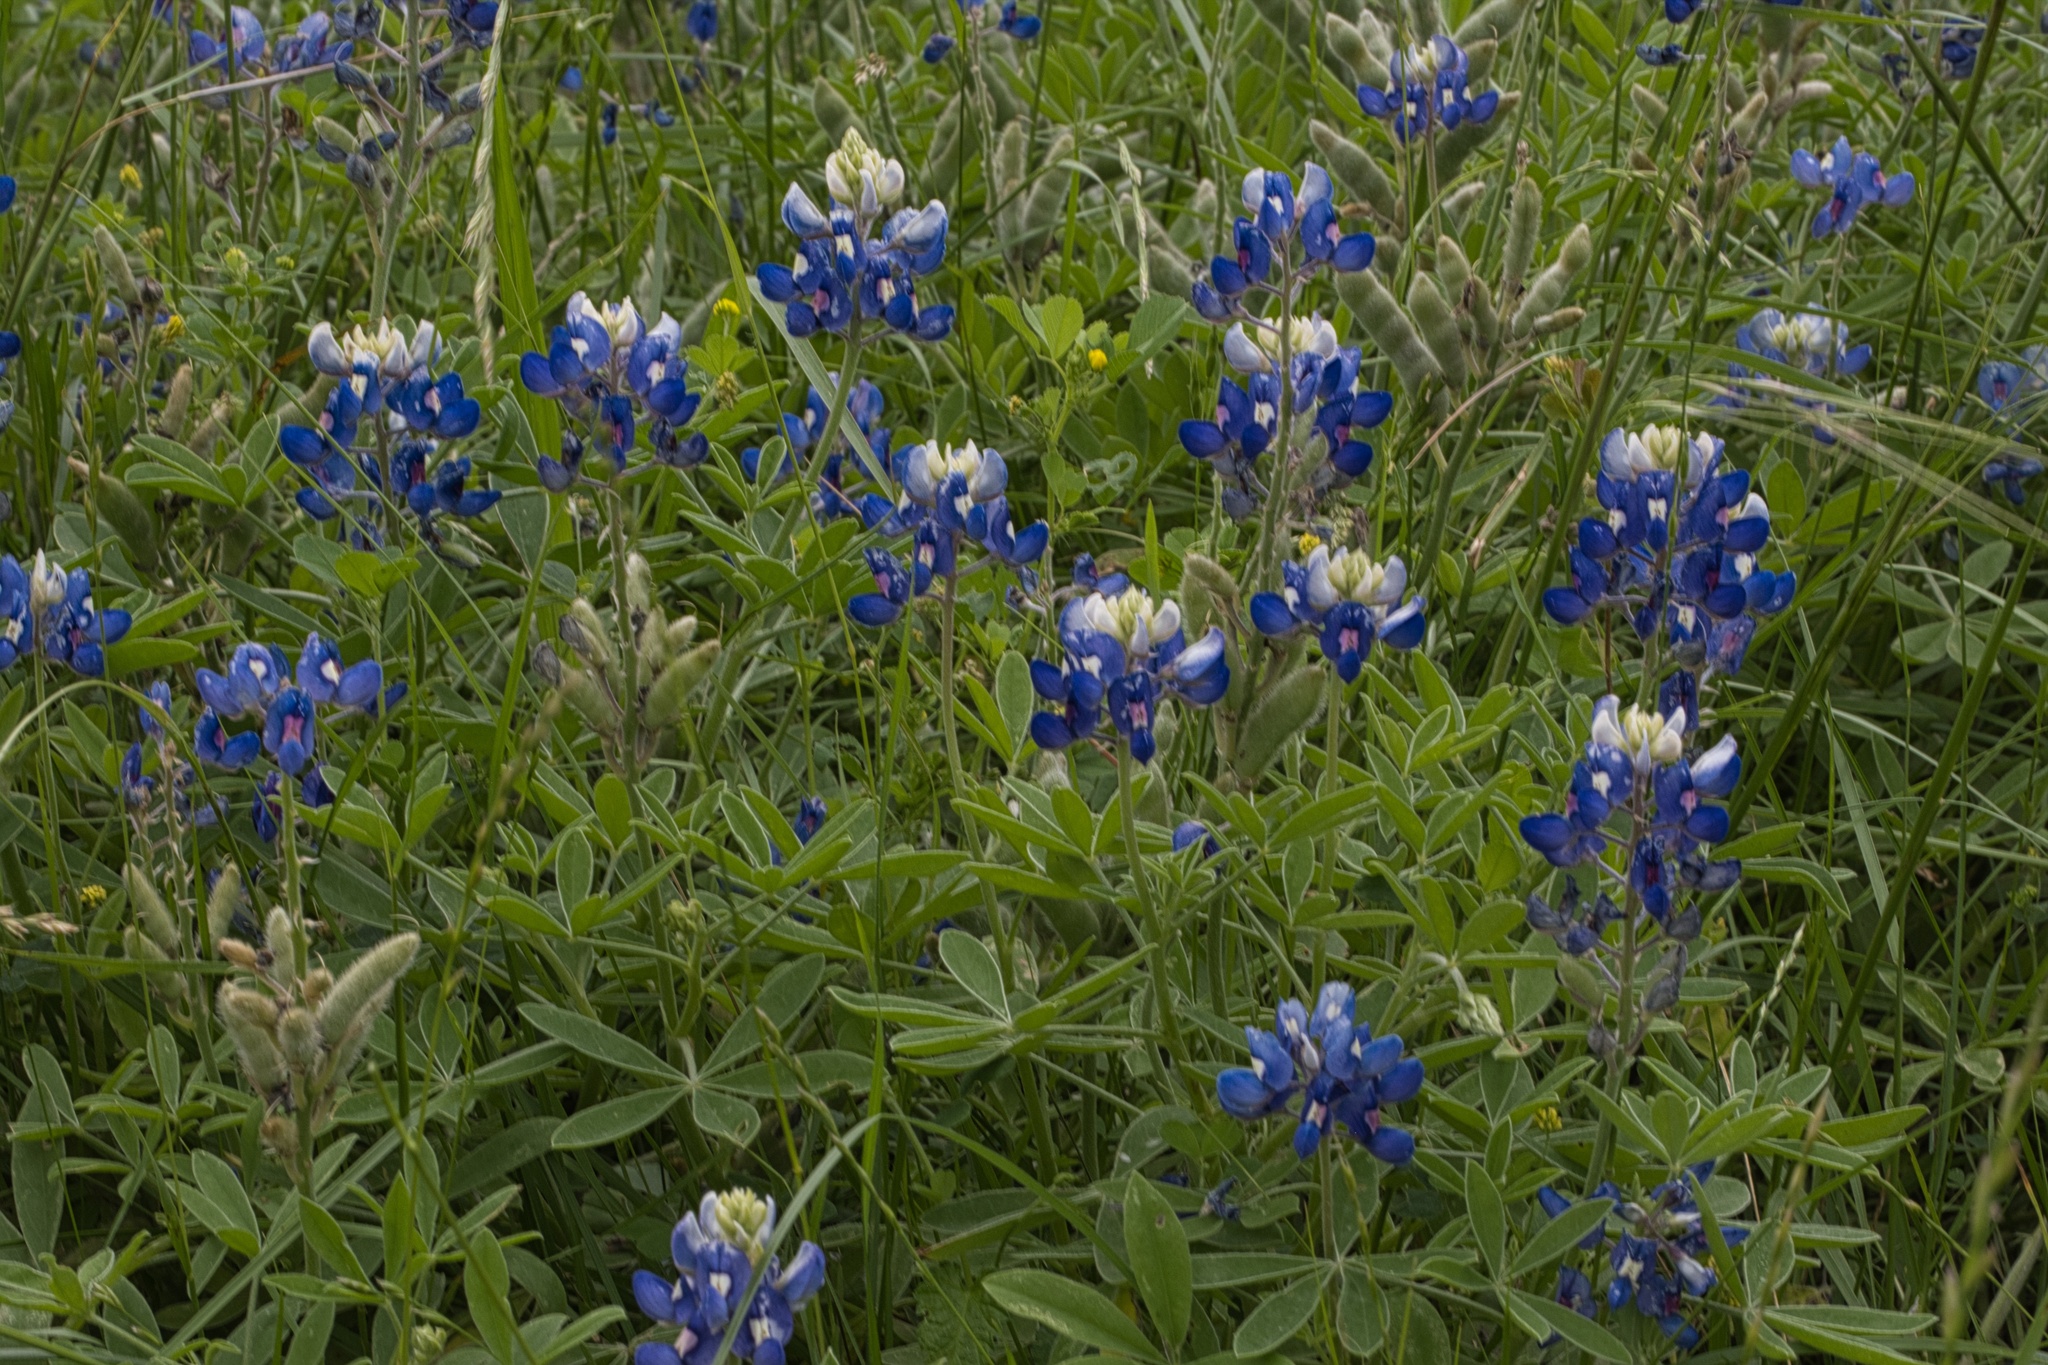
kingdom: Plantae
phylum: Tracheophyta
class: Magnoliopsida
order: Fabales
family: Fabaceae
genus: Lupinus
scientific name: Lupinus texensis
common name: Texas bluebonnet
